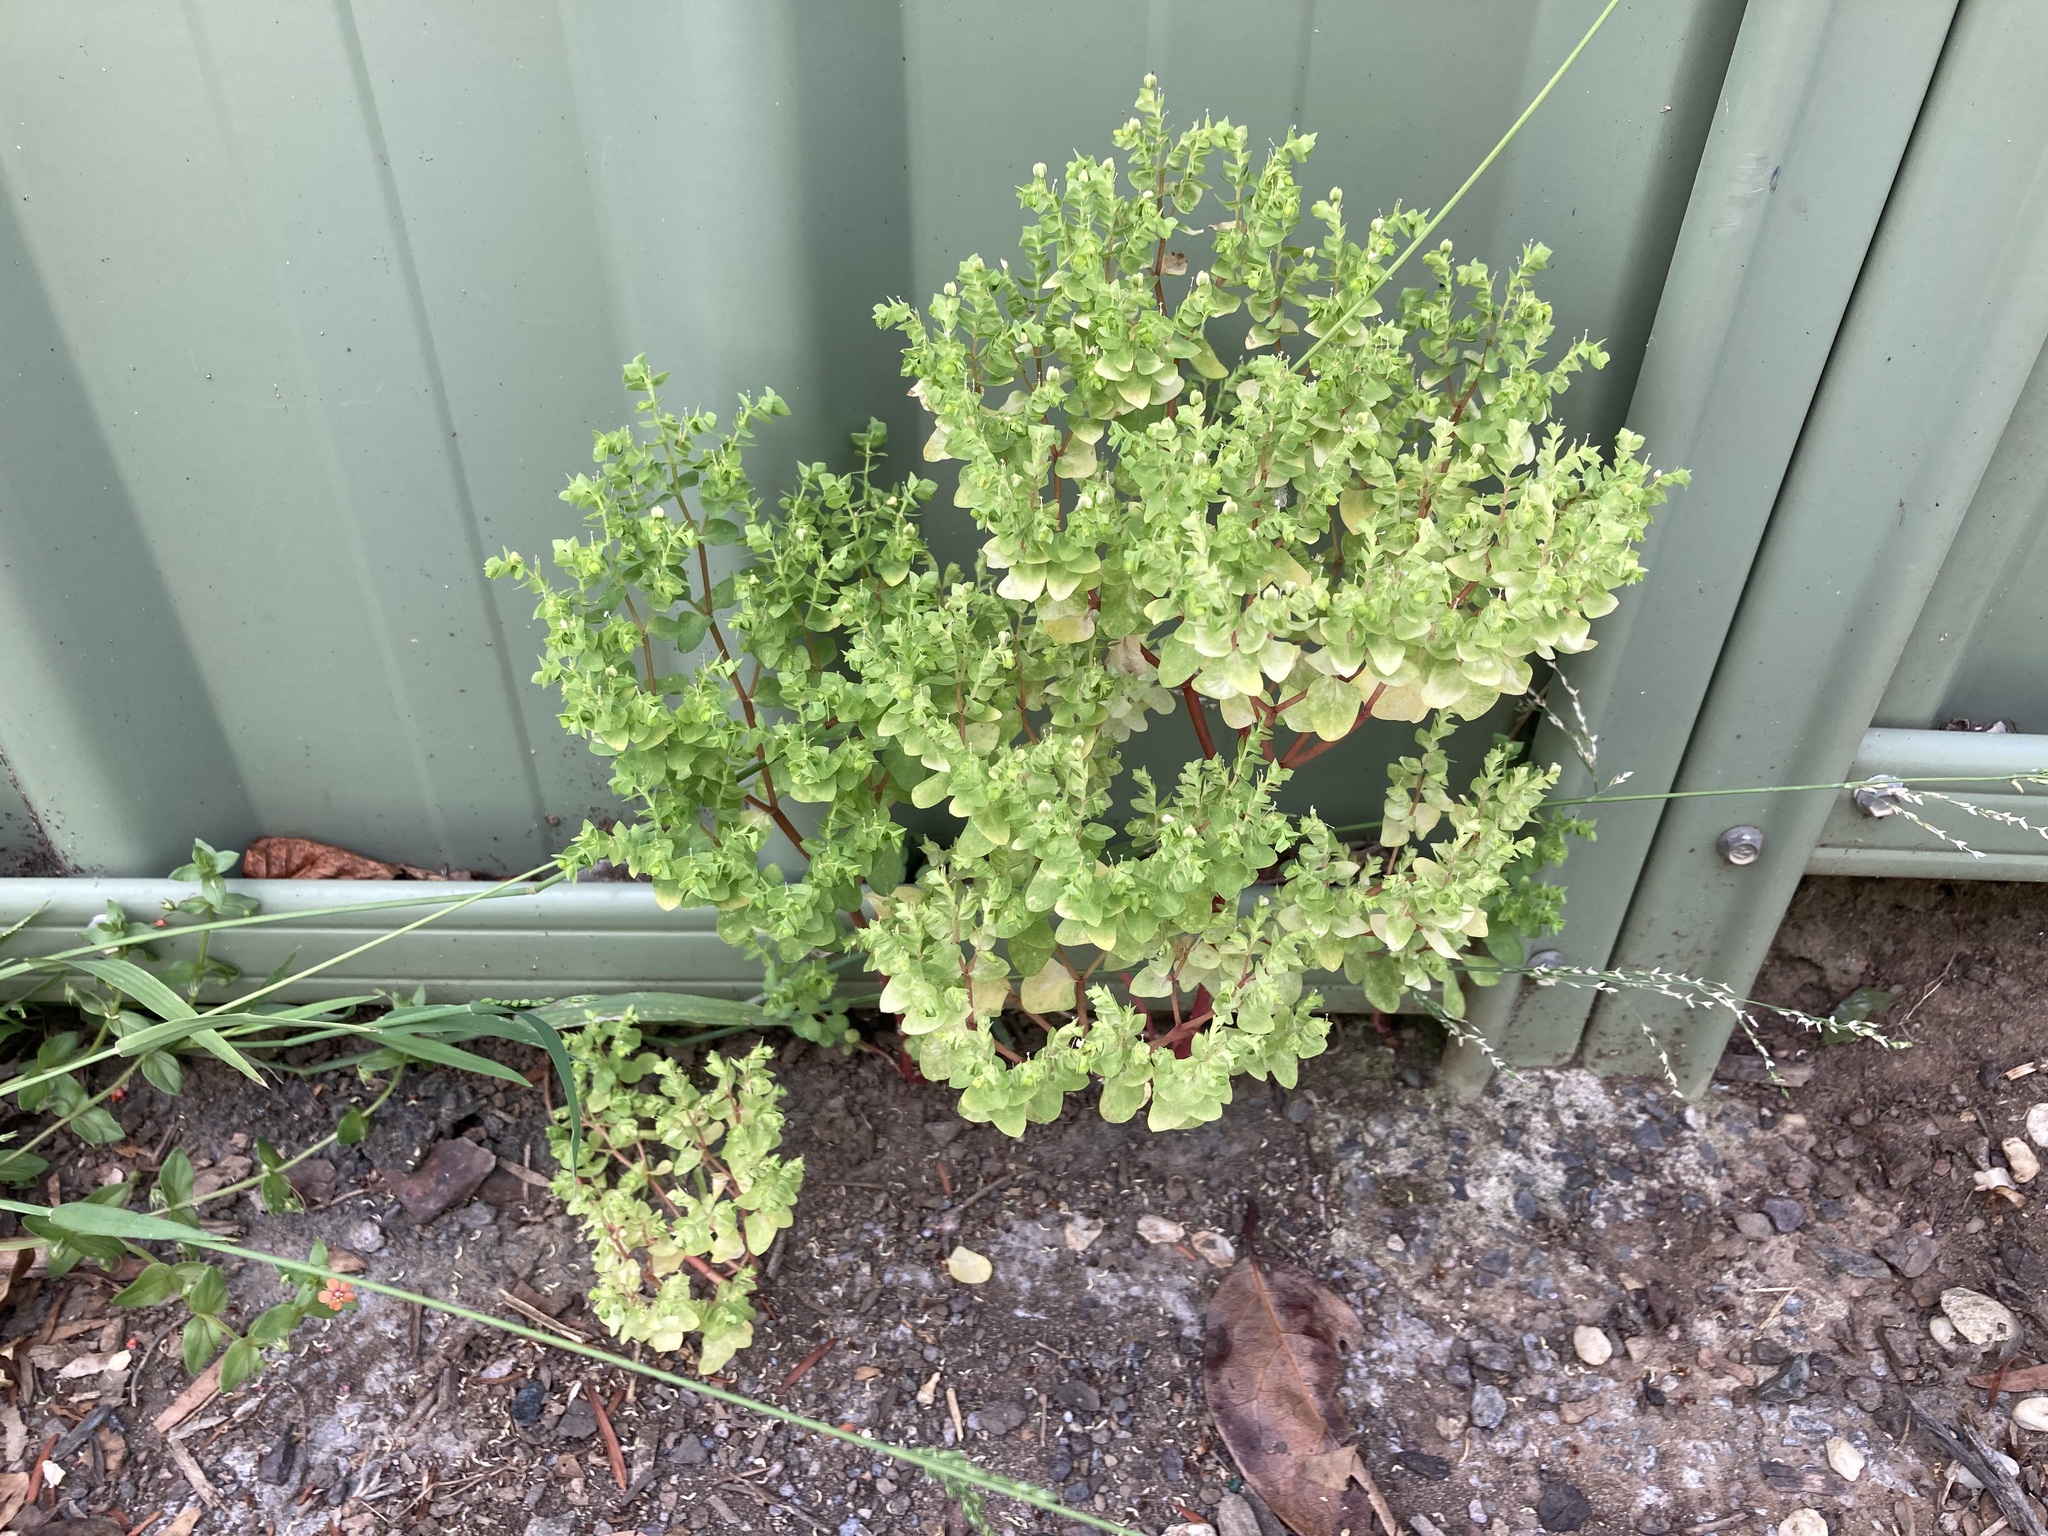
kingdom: Plantae
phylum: Tracheophyta
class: Magnoliopsida
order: Malpighiales
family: Euphorbiaceae
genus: Euphorbia
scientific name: Euphorbia peplus
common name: Petty spurge
